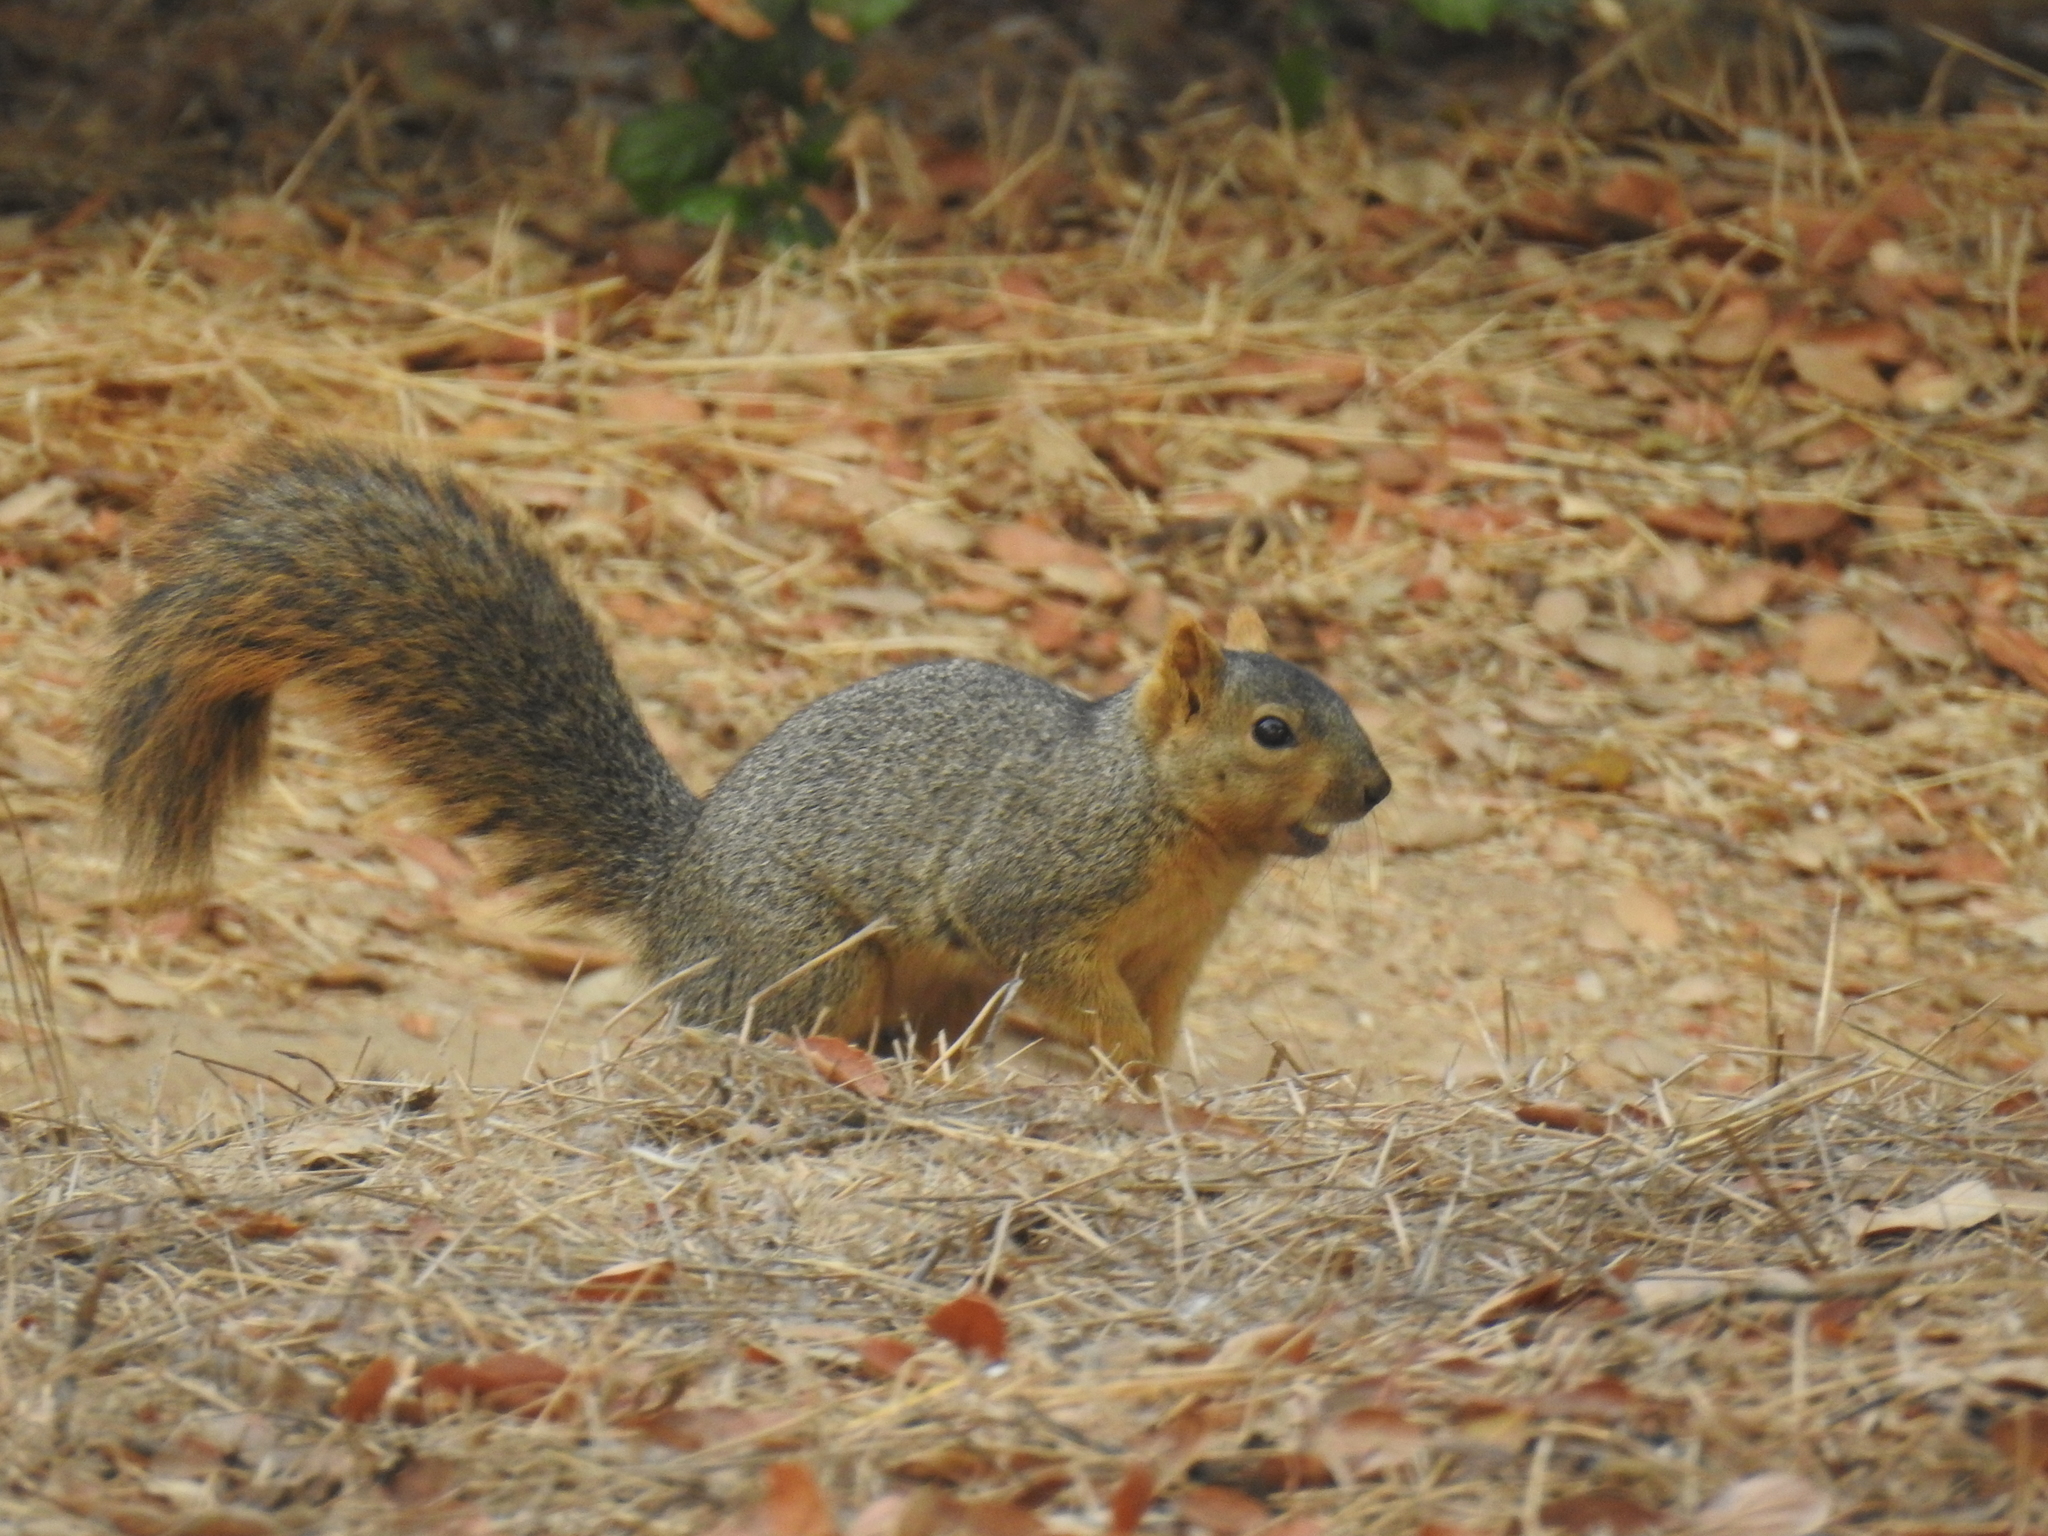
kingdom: Animalia
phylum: Chordata
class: Mammalia
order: Rodentia
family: Sciuridae
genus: Sciurus
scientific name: Sciurus niger
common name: Fox squirrel
